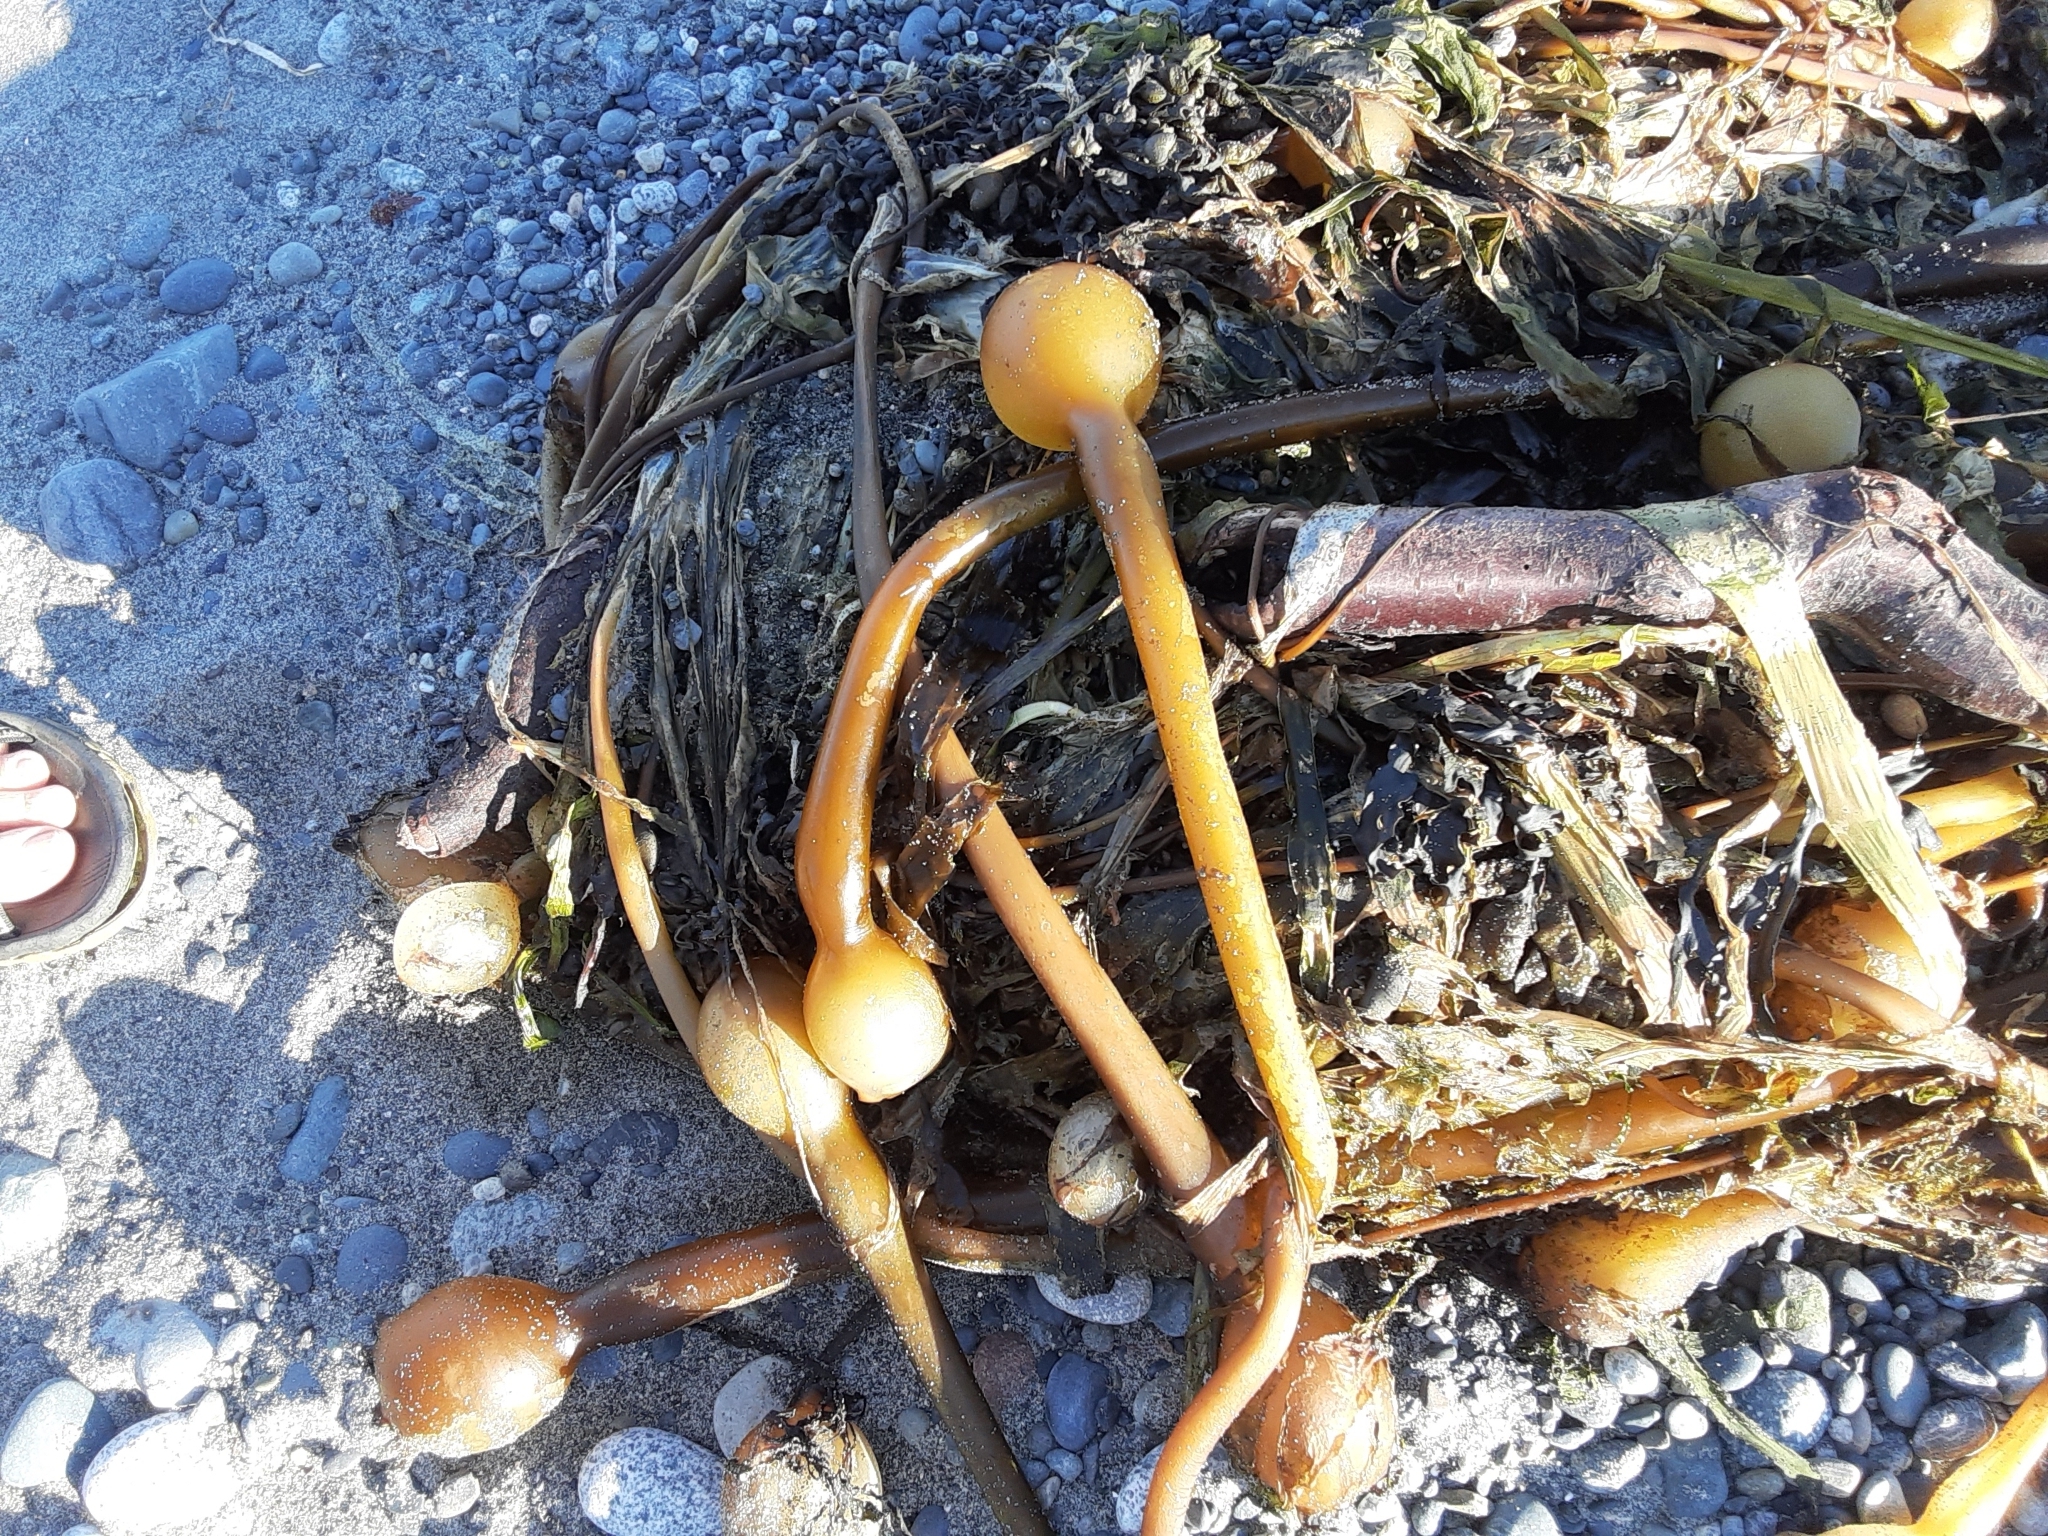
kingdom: Chromista
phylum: Ochrophyta
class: Phaeophyceae
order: Laminariales
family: Laminariaceae
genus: Nereocystis
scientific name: Nereocystis luetkeana
